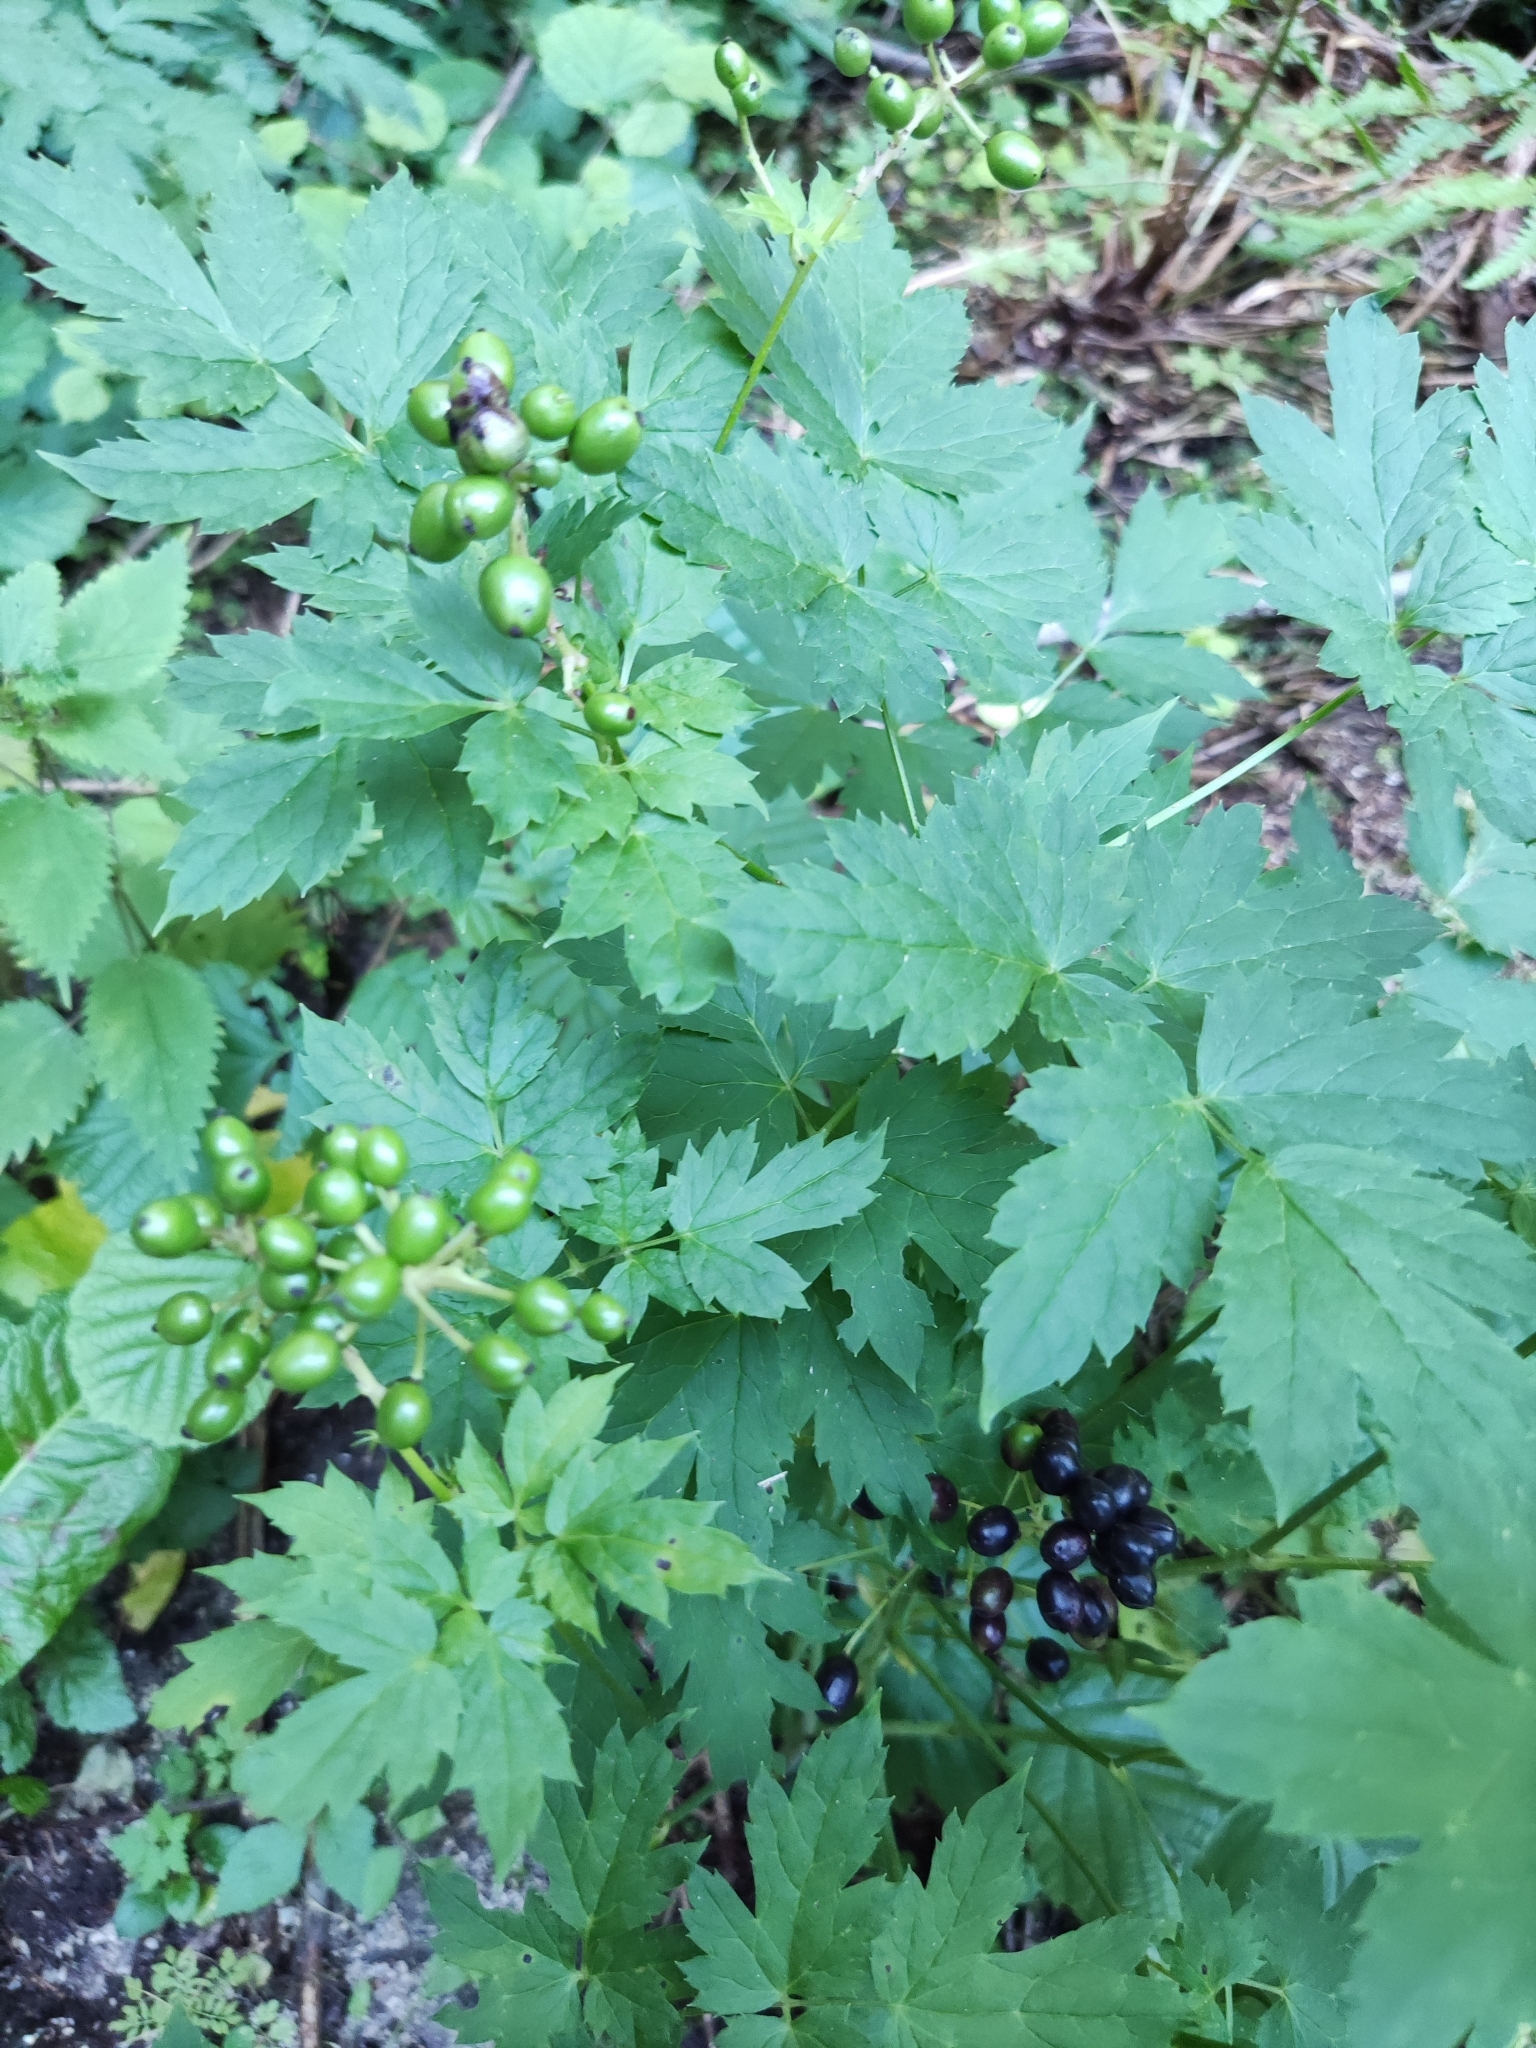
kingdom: Plantae
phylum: Tracheophyta
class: Magnoliopsida
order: Ranunculales
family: Ranunculaceae
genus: Actaea
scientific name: Actaea spicata
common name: Baneberry
